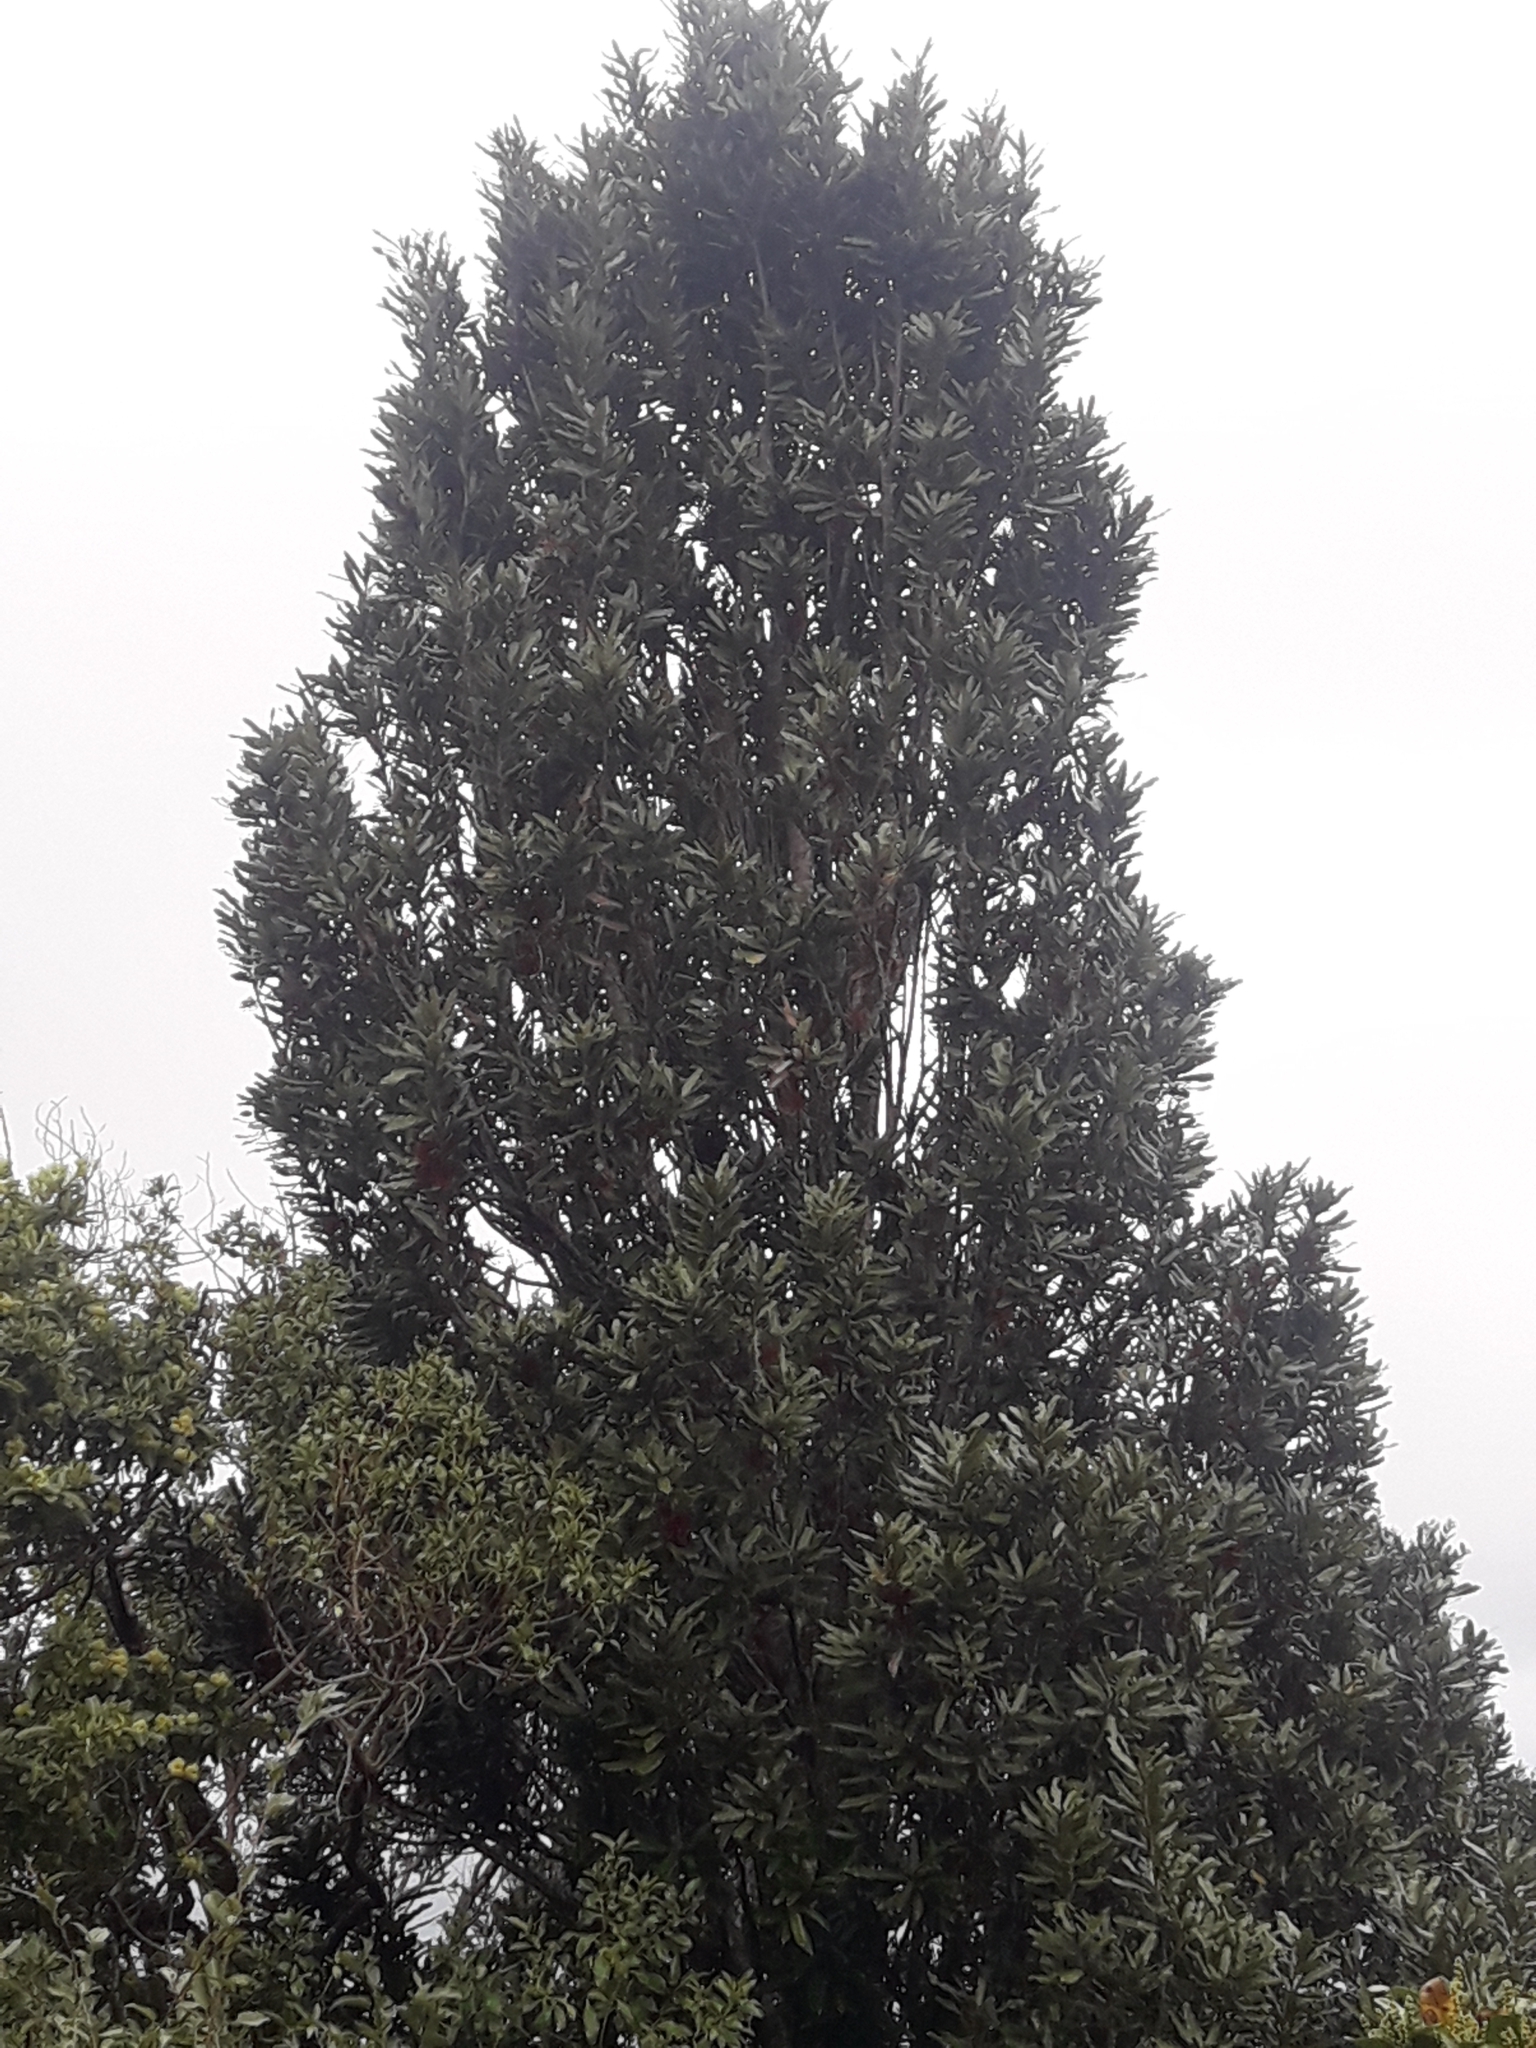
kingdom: Plantae
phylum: Tracheophyta
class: Magnoliopsida
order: Proteales
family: Proteaceae
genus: Knightia
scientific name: Knightia excelsa
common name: New zealand-honeysuckle
